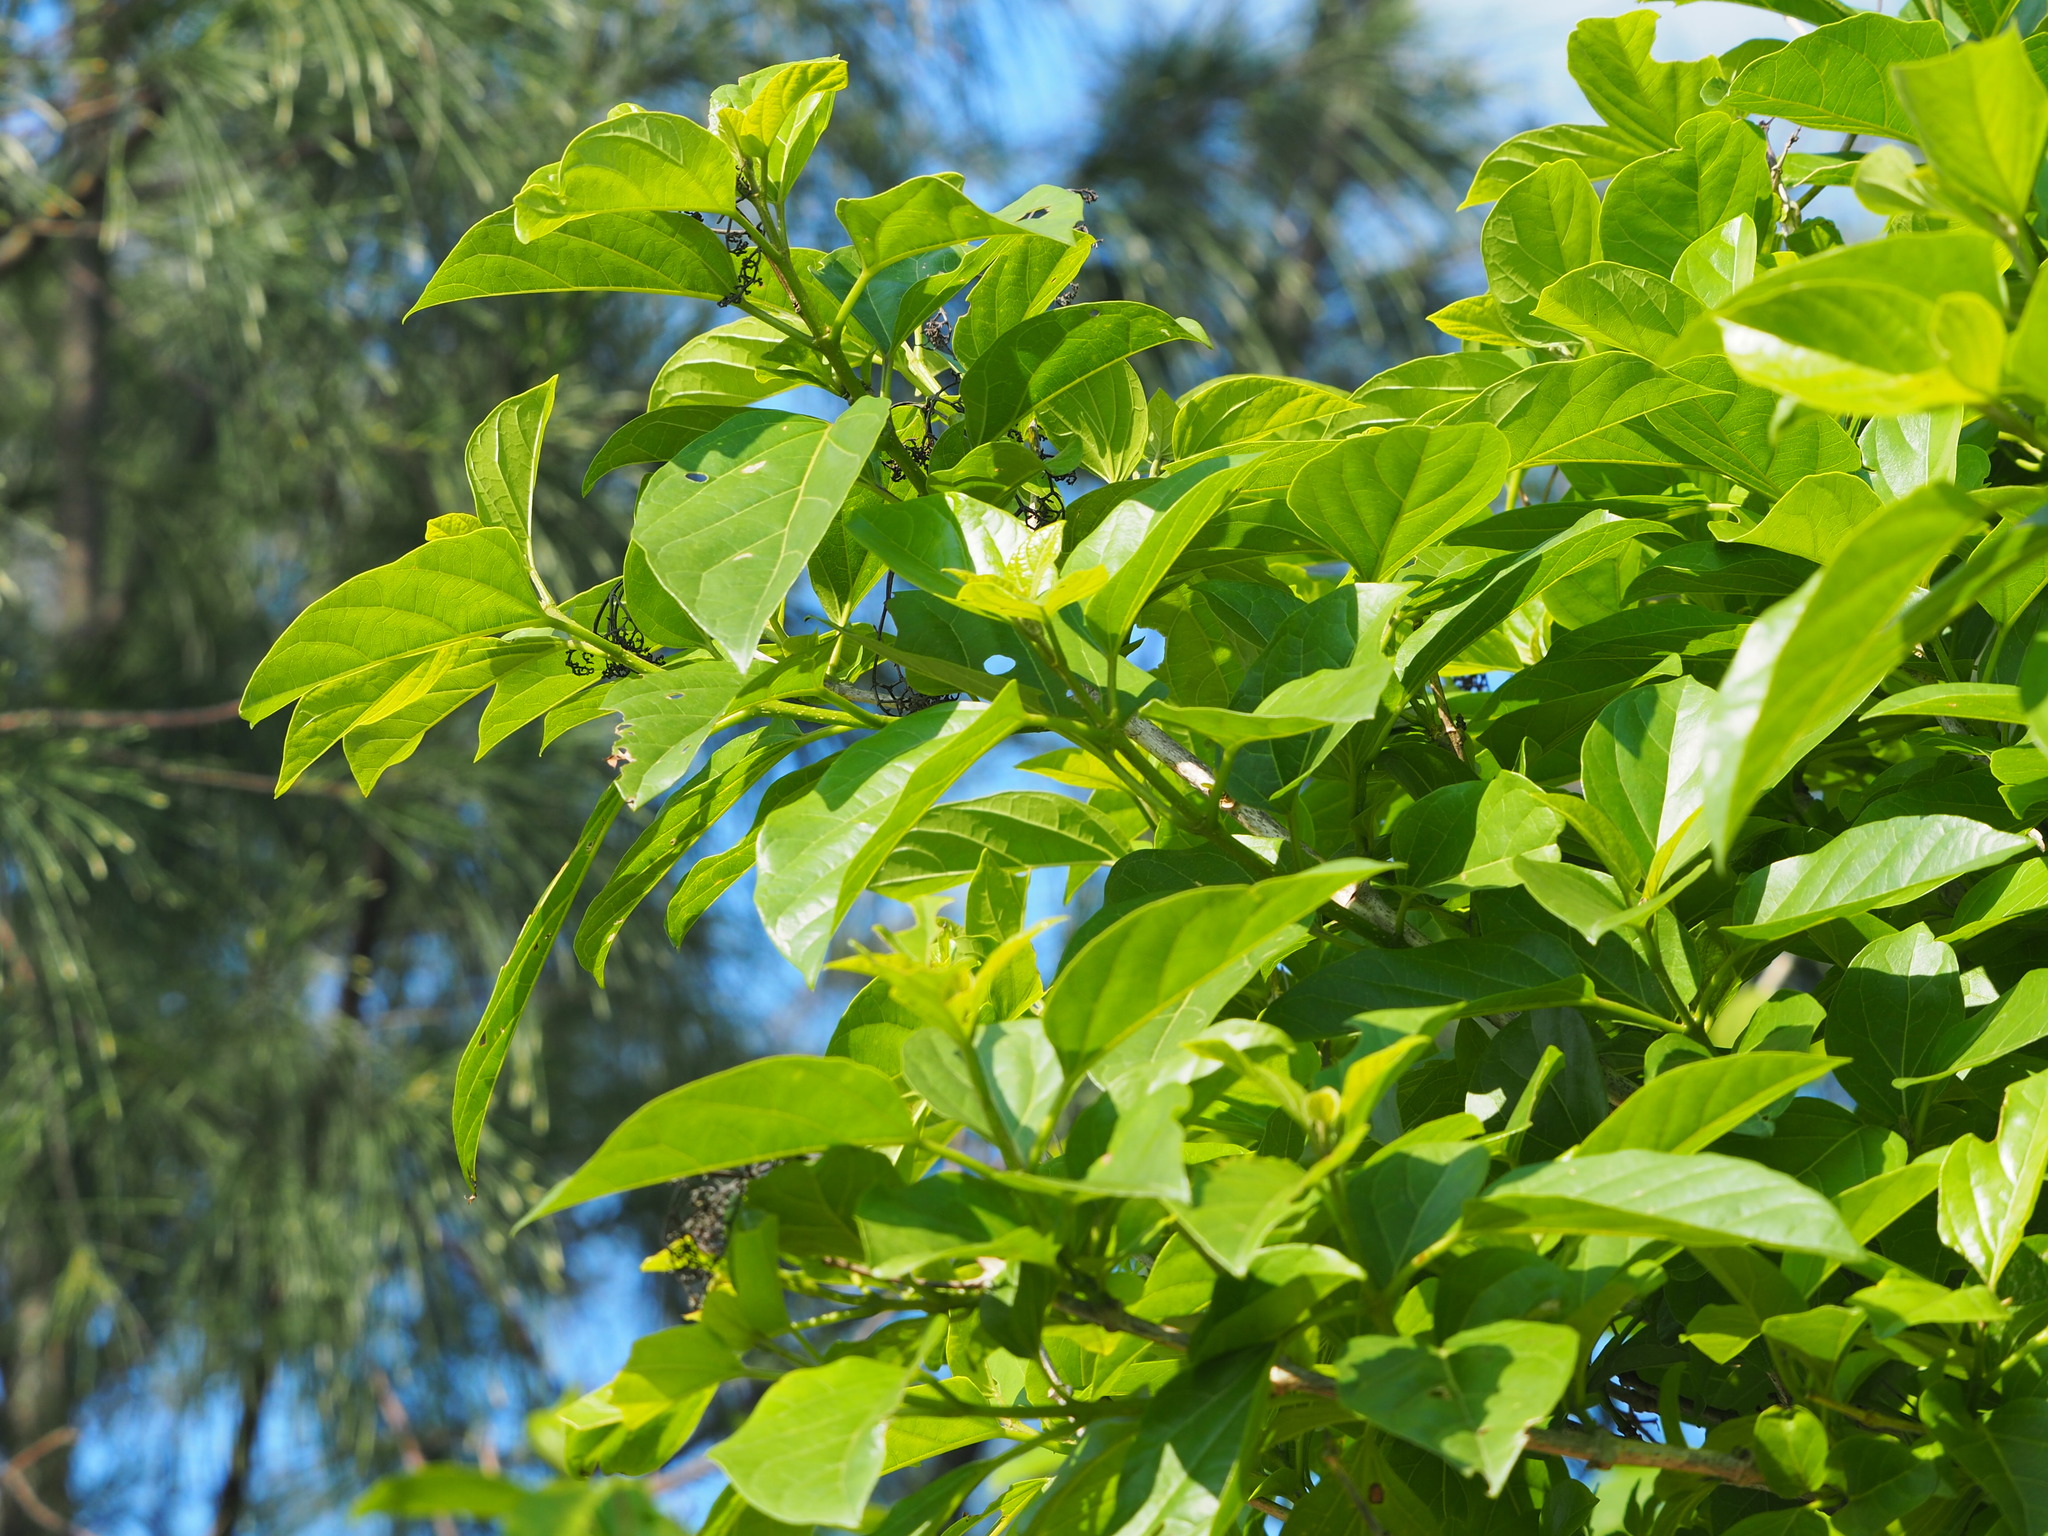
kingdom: Plantae
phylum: Tracheophyta
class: Magnoliopsida
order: Lamiales
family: Lamiaceae
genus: Premna
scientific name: Premna serratifolia
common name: Bastard guelder
